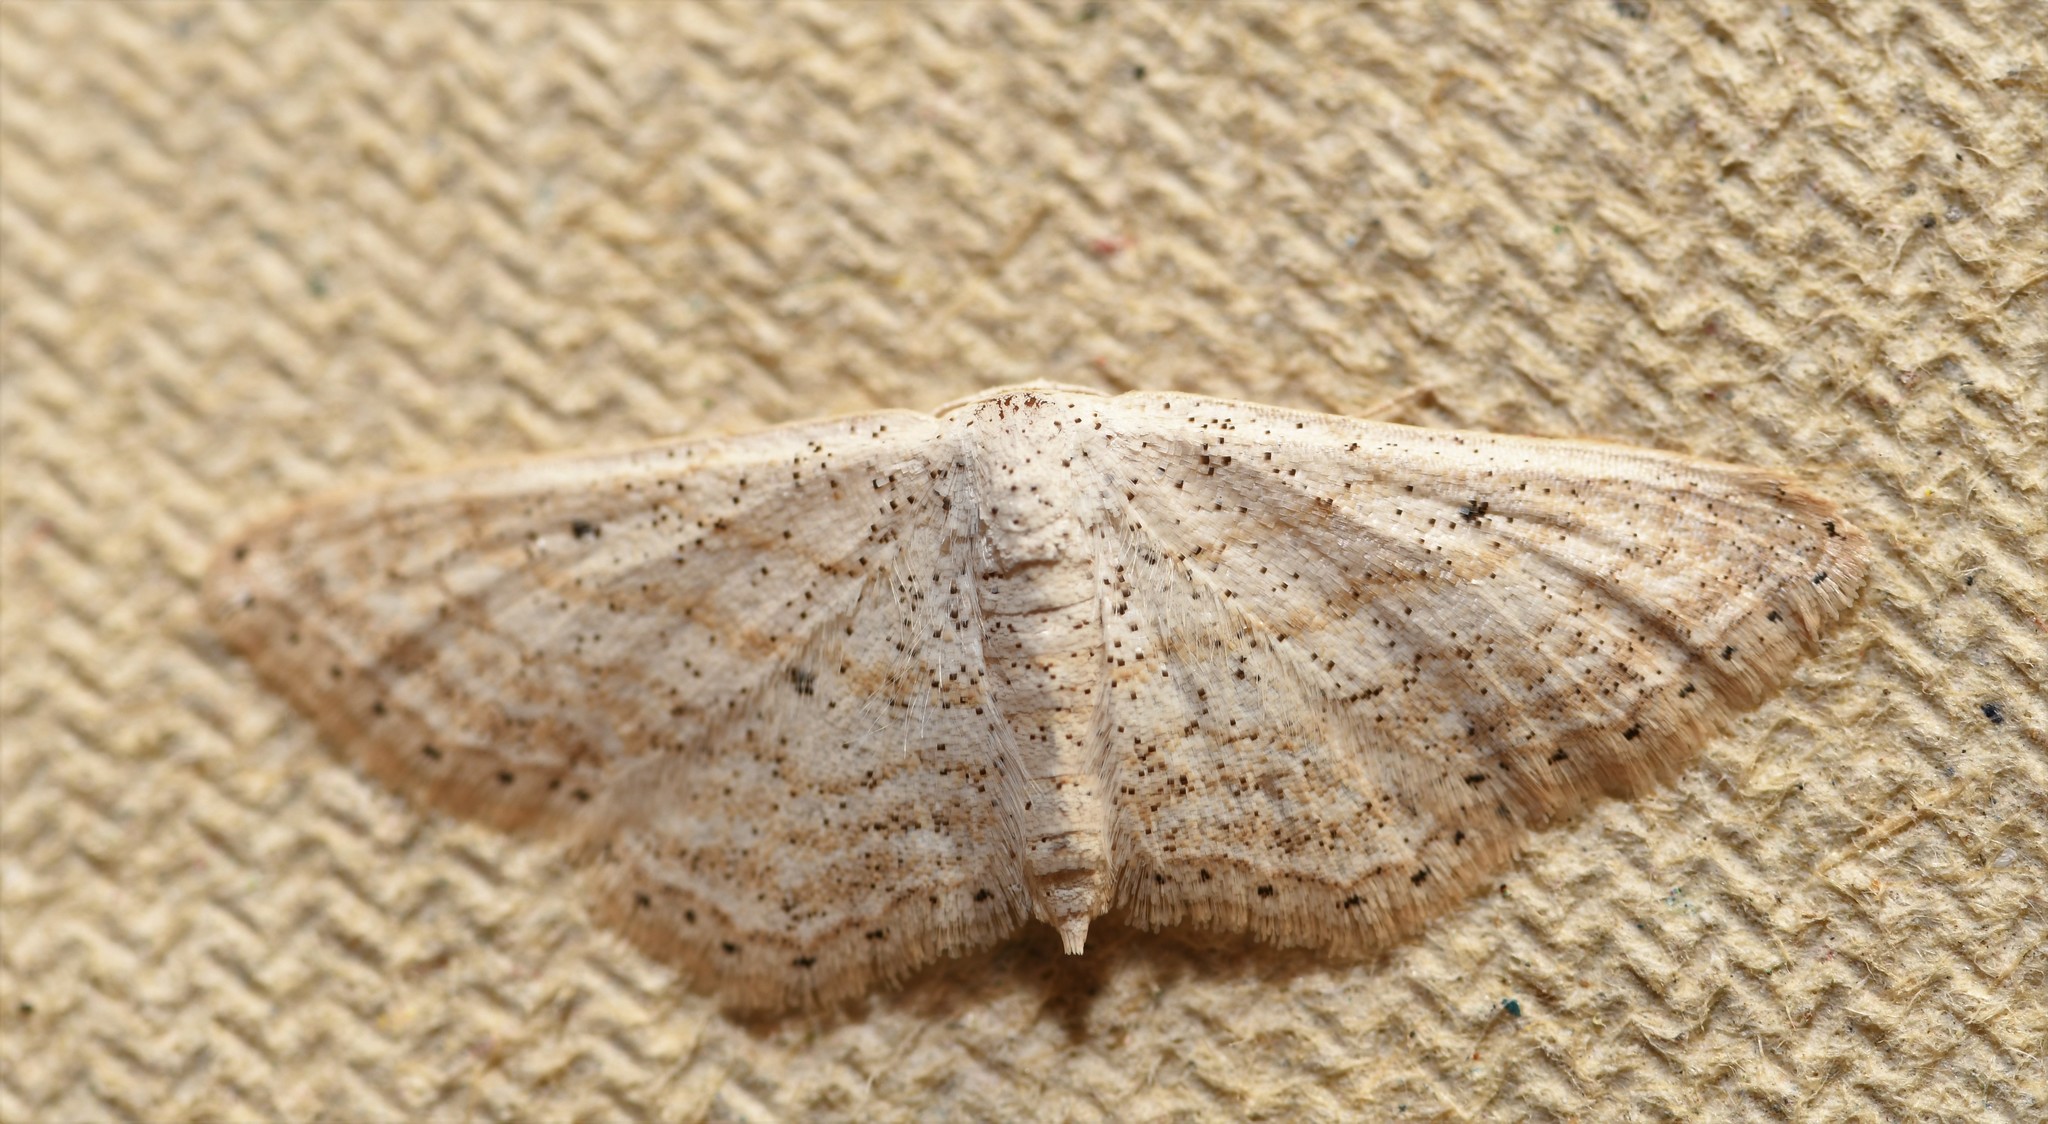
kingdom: Animalia
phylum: Arthropoda
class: Insecta
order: Lepidoptera
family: Geometridae
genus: Idaea
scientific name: Idaea elongaria
